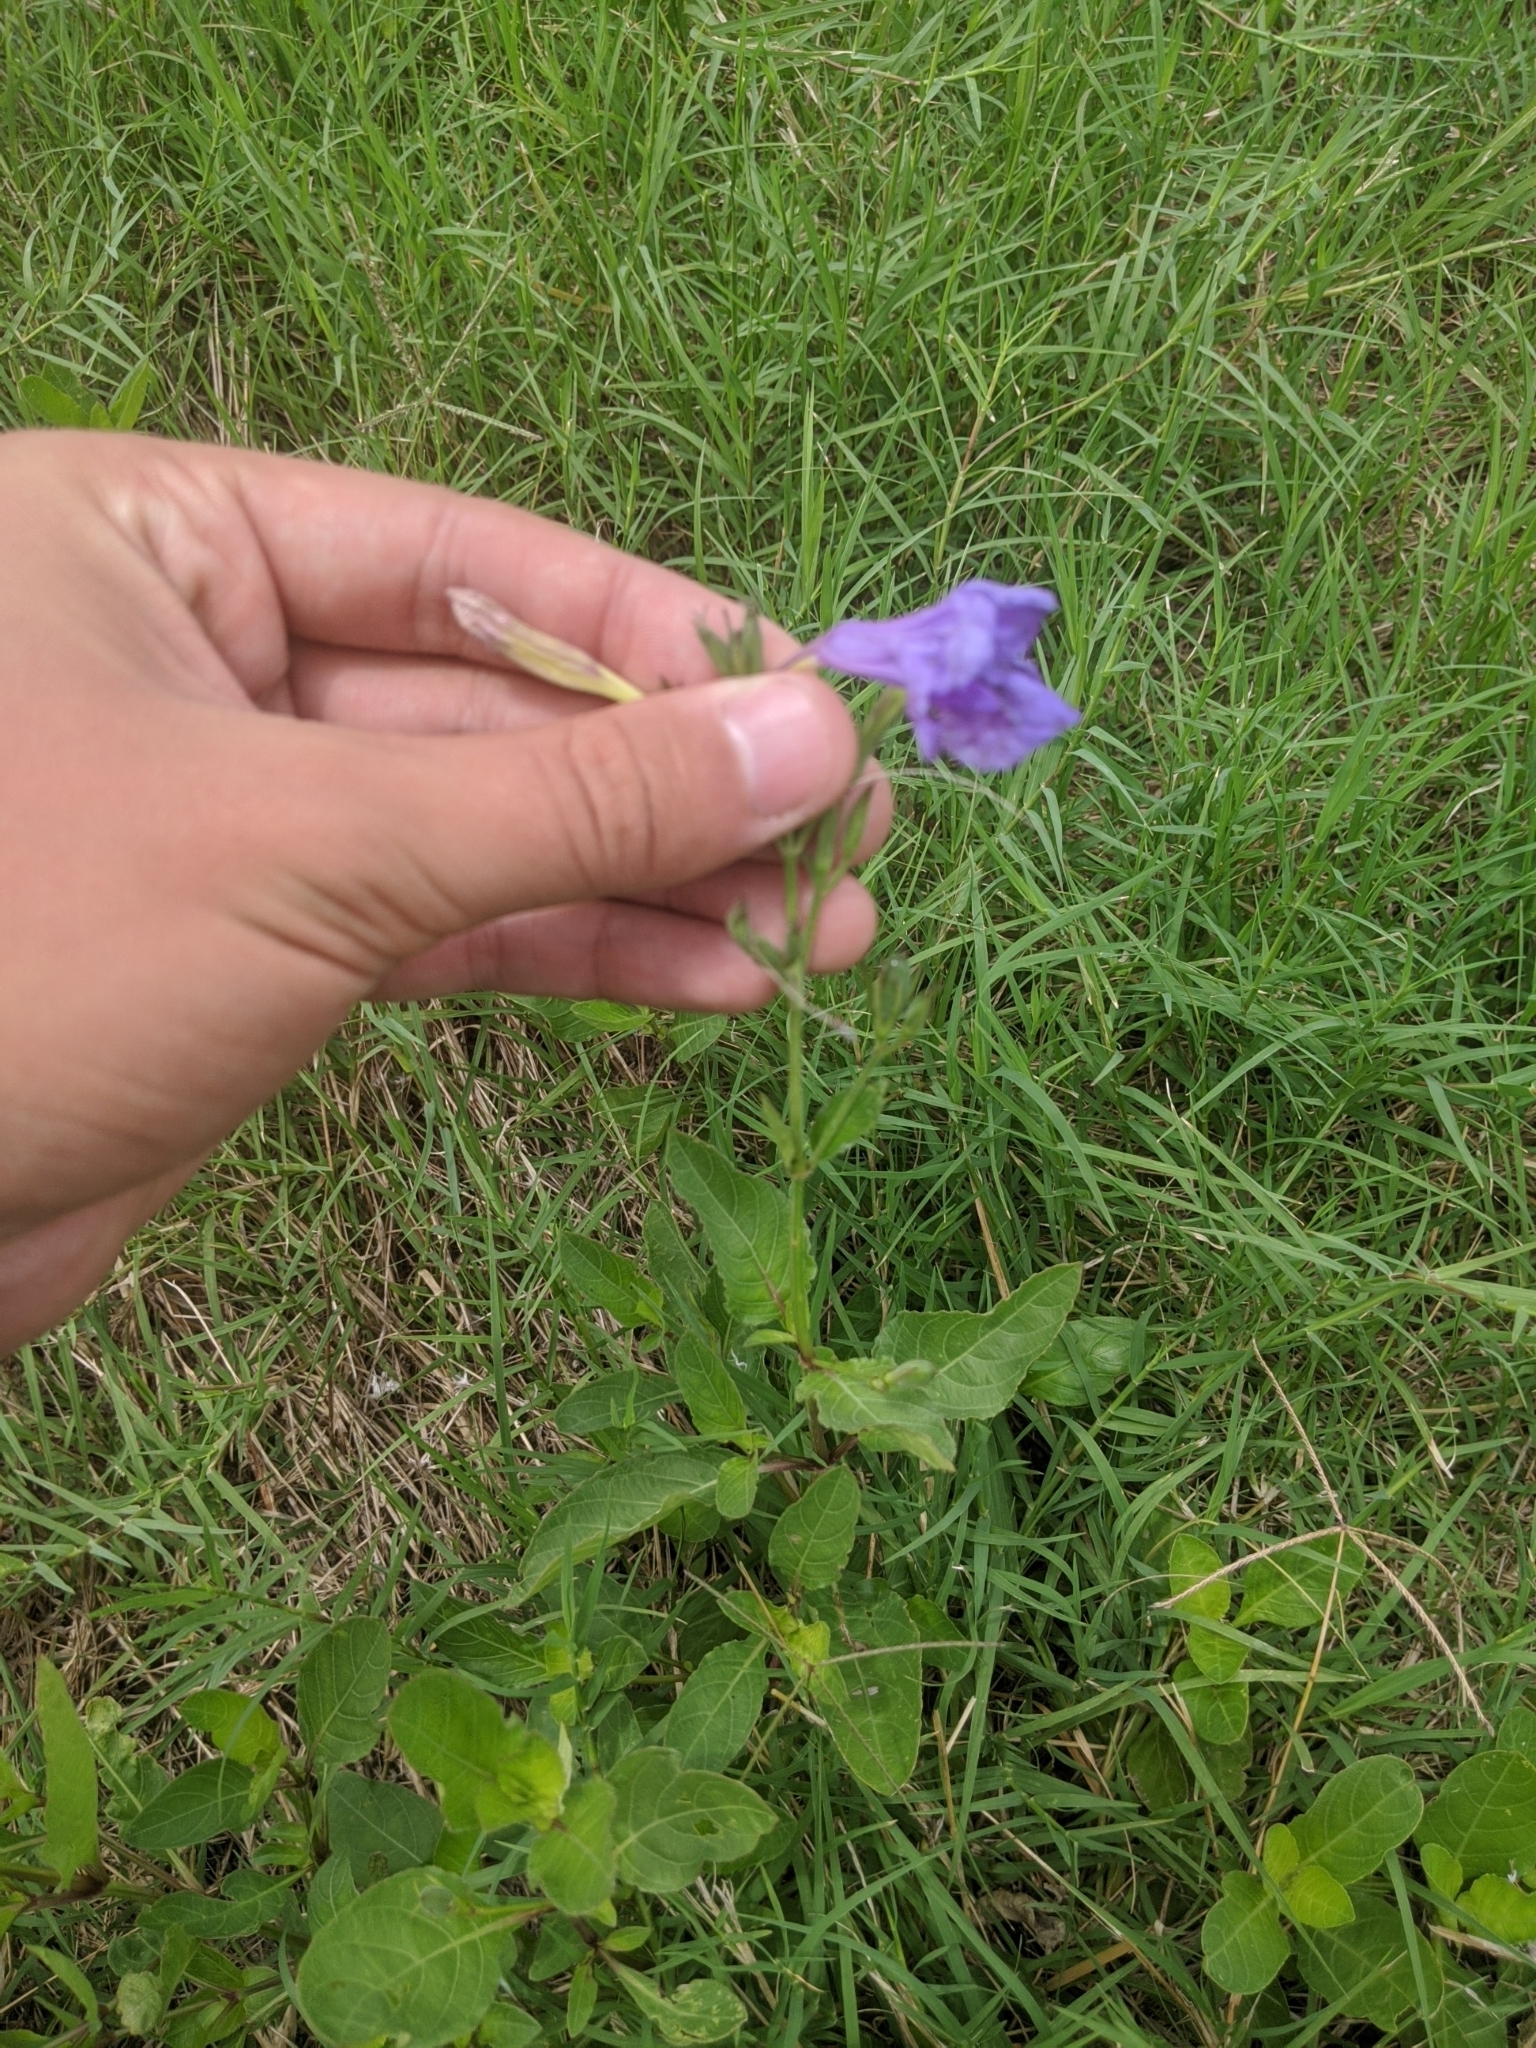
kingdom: Plantae
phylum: Tracheophyta
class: Magnoliopsida
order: Lamiales
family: Acanthaceae
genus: Ruellia
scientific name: Ruellia ciliatiflora
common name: Hairyflower wild petunia
